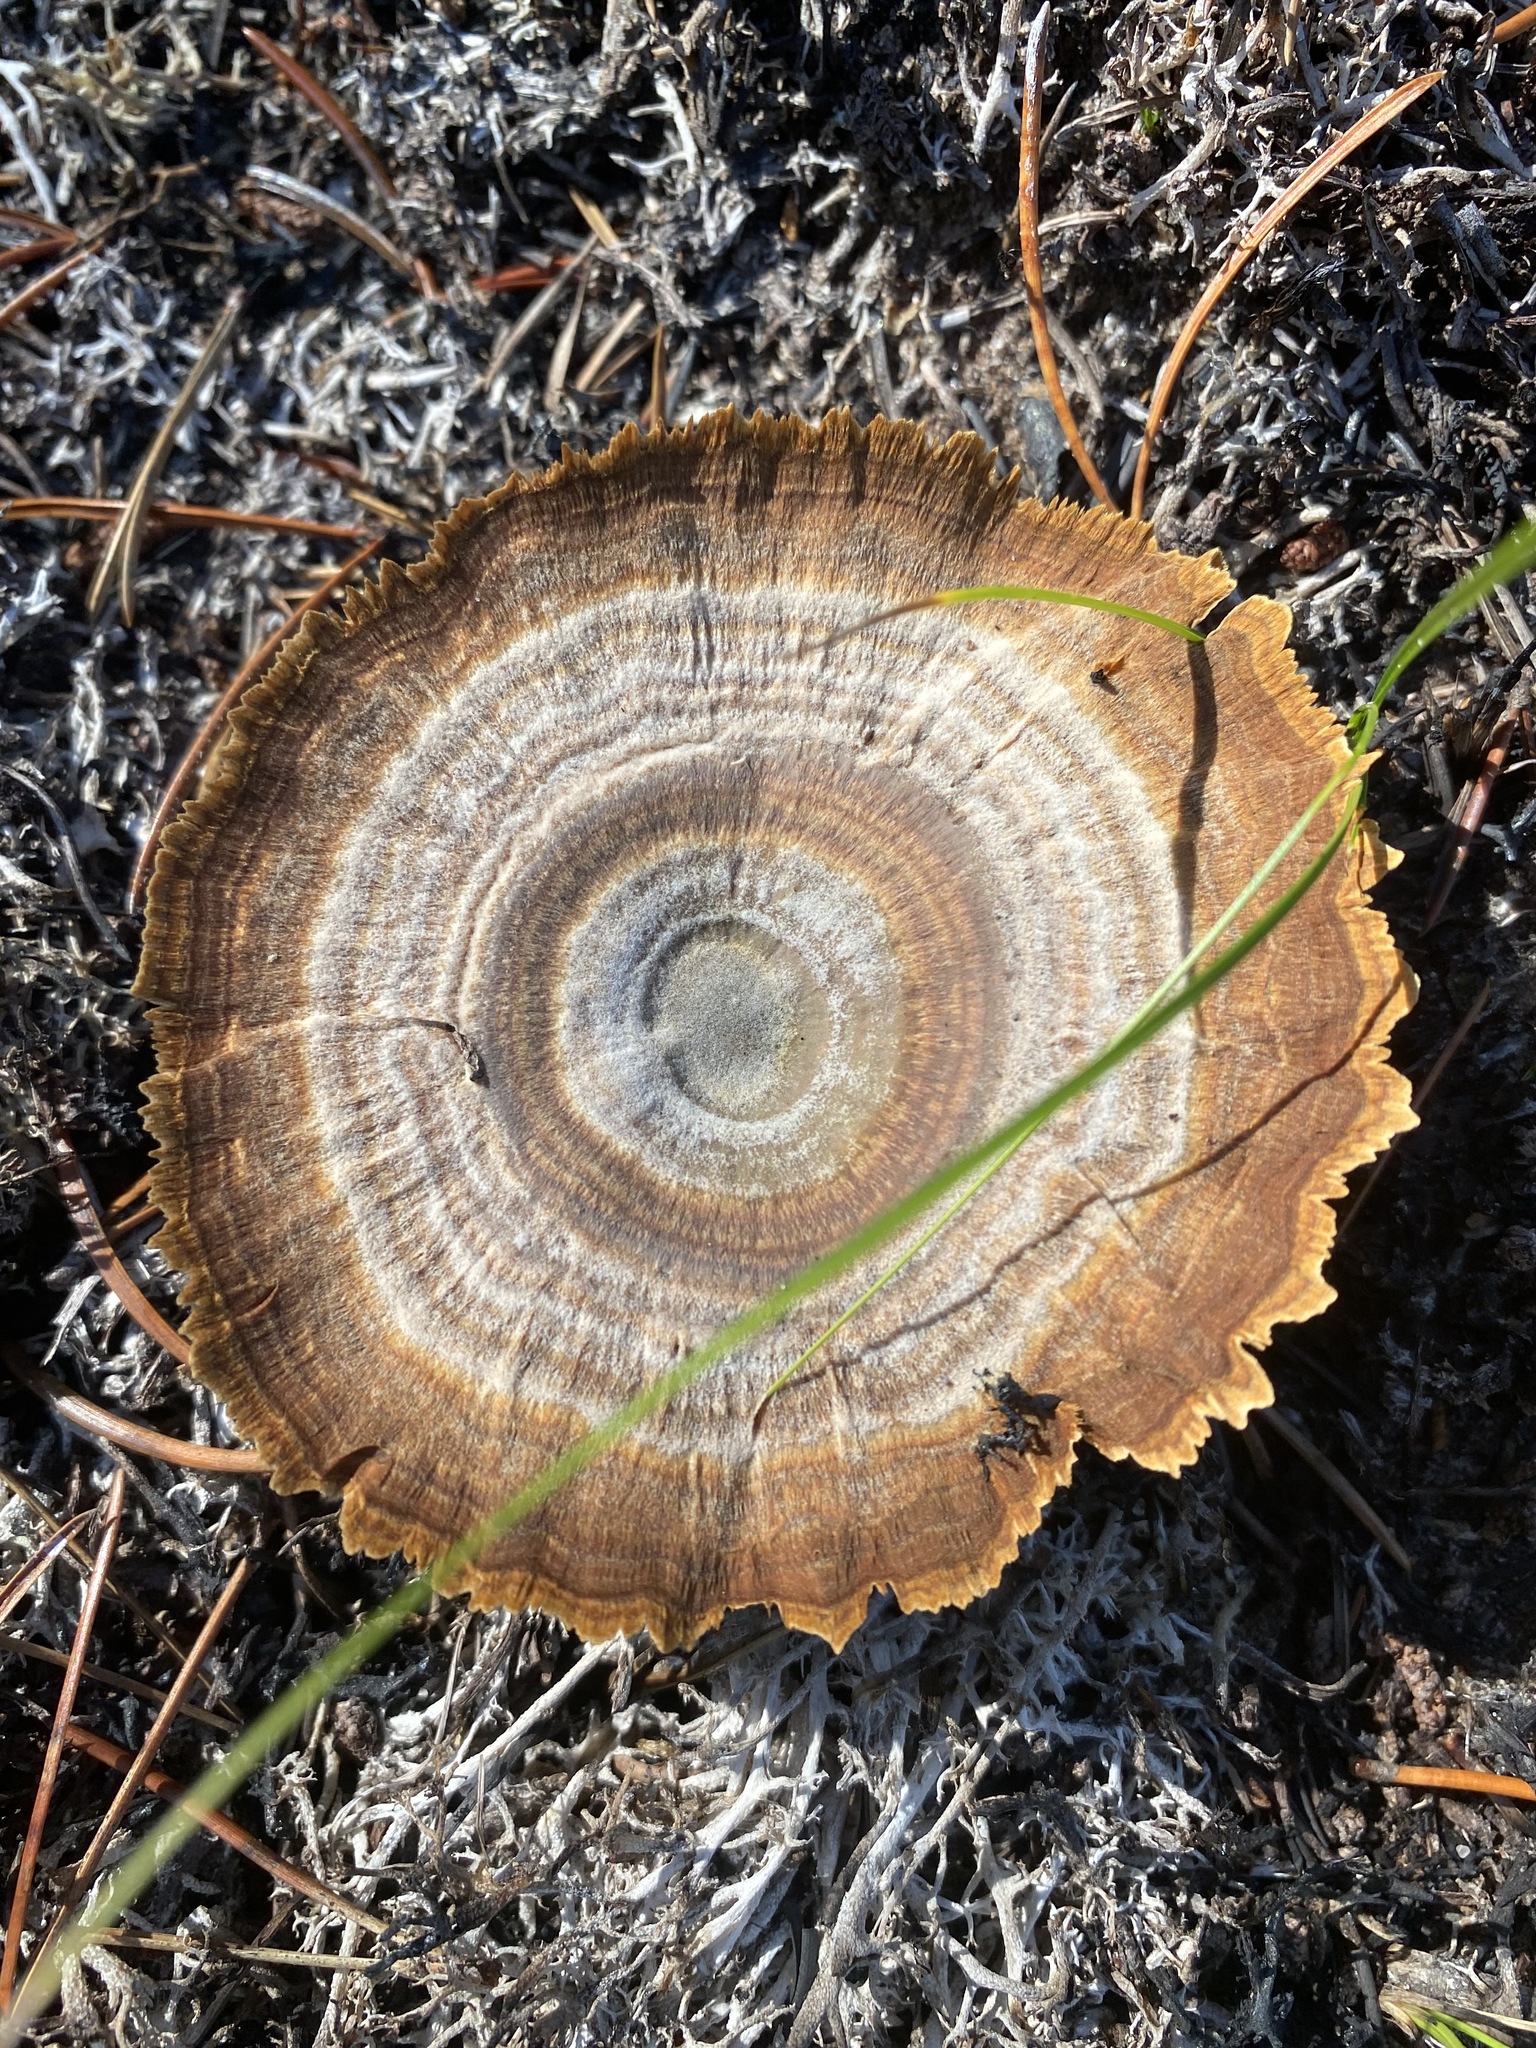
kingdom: Fungi
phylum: Basidiomycota
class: Agaricomycetes
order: Hymenochaetales
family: Hymenochaetaceae
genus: Coltricia
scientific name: Coltricia perennis
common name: Tiger's eye
